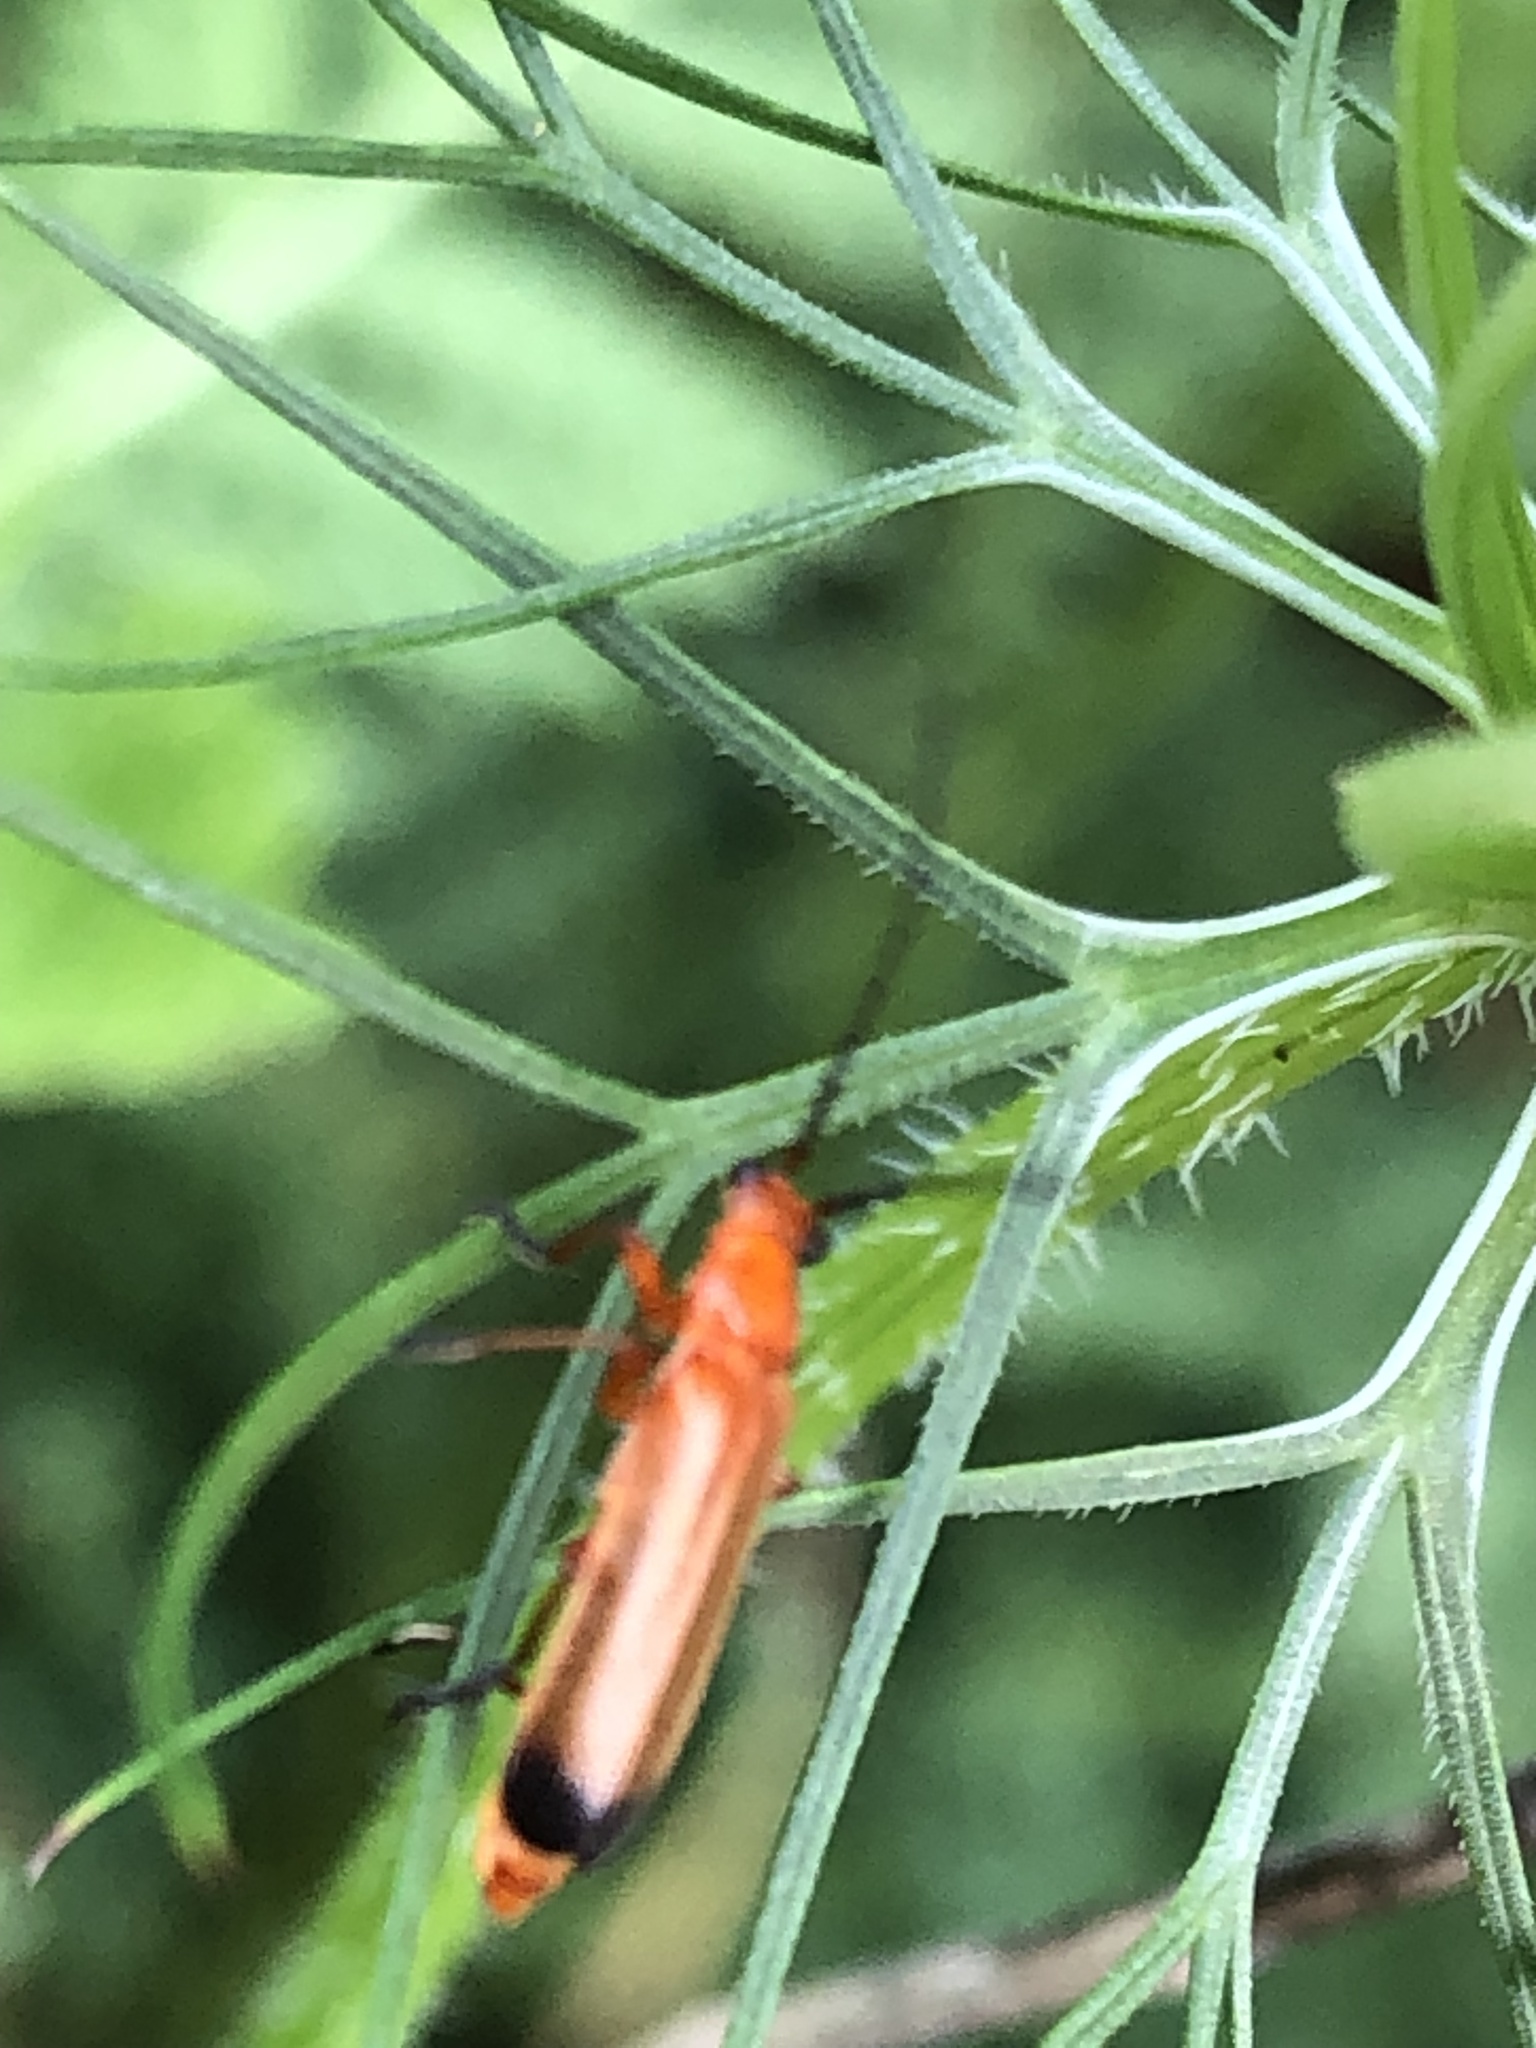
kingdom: Animalia
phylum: Arthropoda
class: Insecta
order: Coleoptera
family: Cantharidae
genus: Rhagonycha
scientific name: Rhagonycha fulva
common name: Common red soldier beetle
